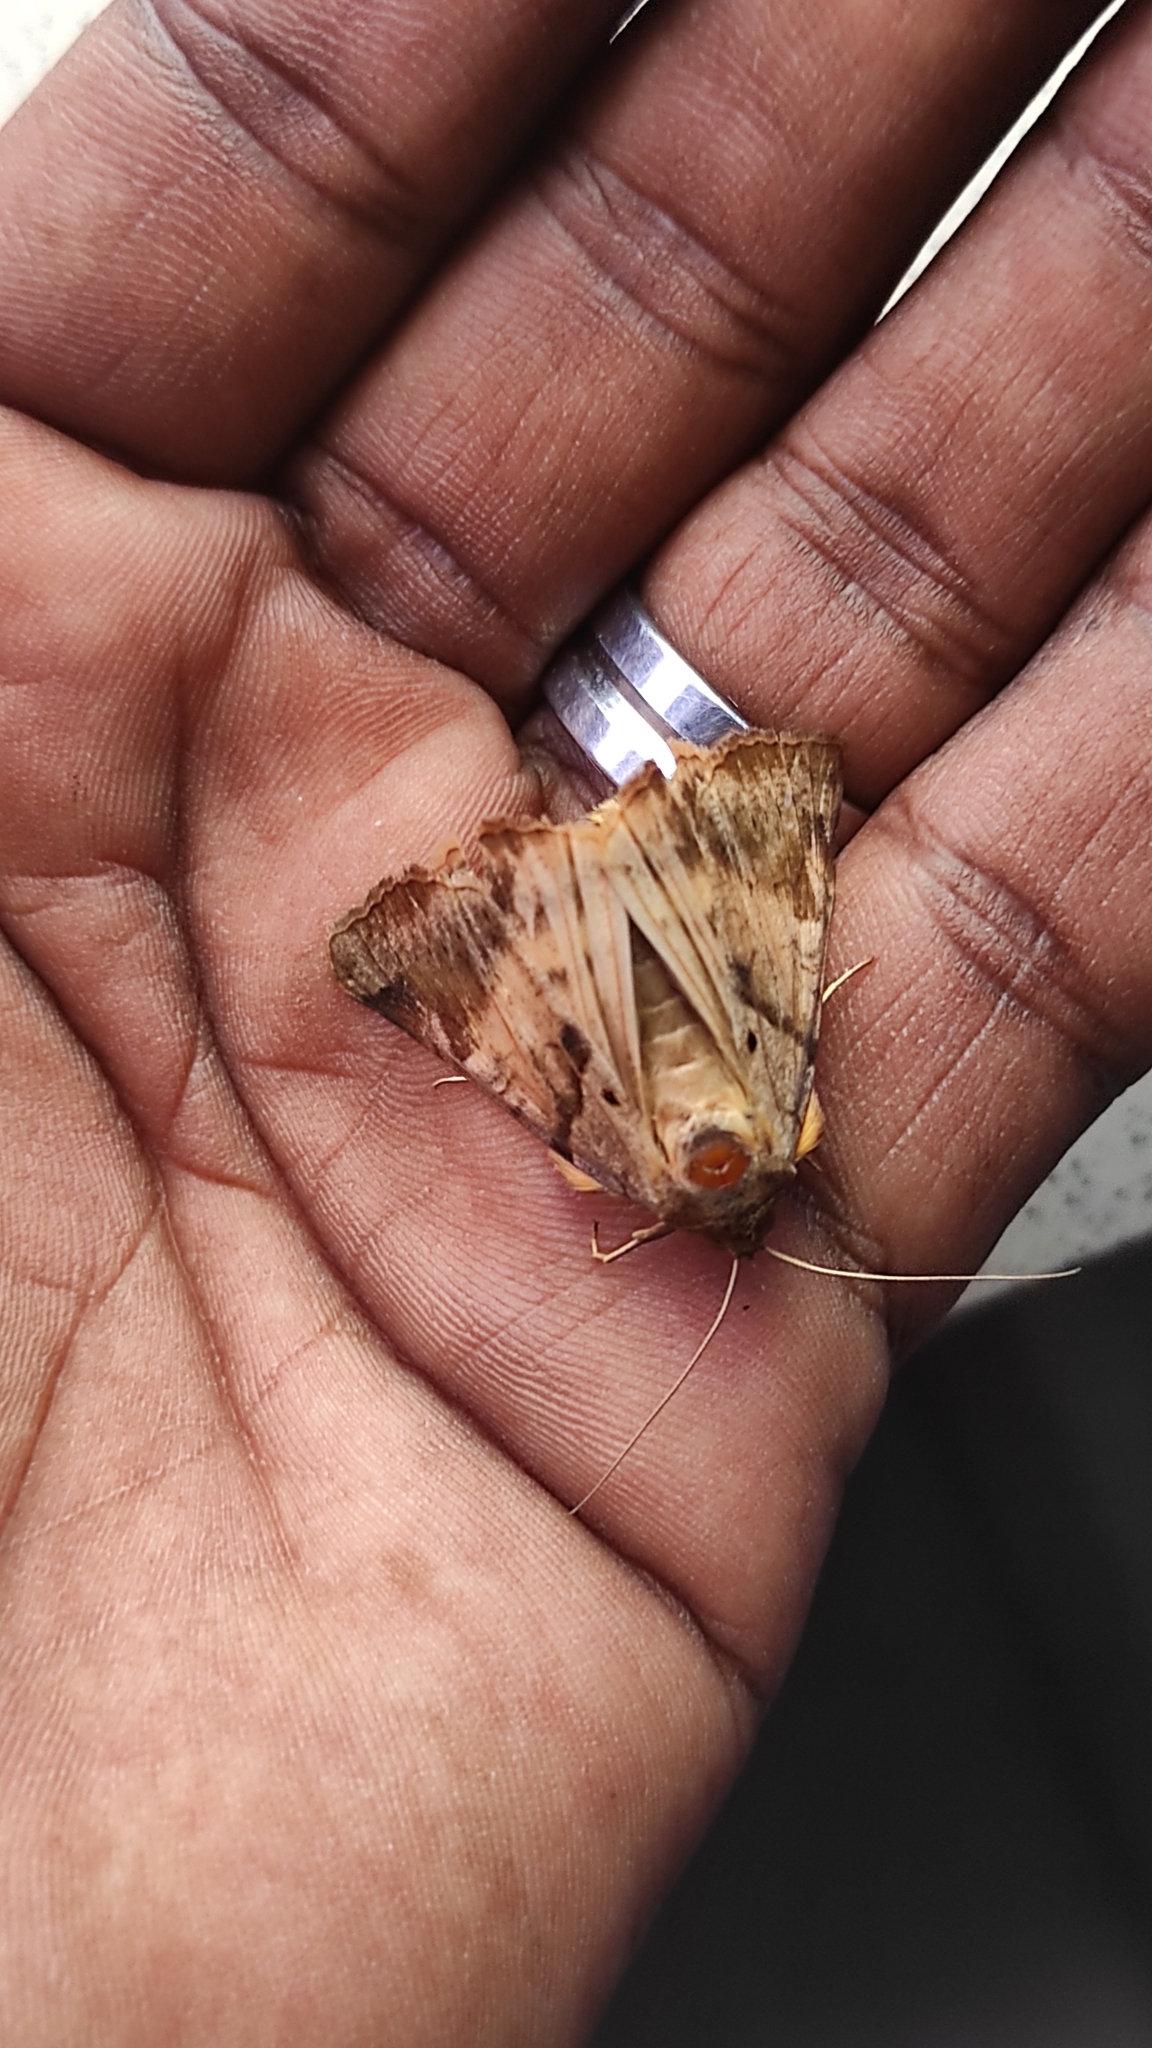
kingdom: Animalia
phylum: Arthropoda
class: Insecta
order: Lepidoptera
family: Erebidae
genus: Mocis
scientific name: Mocis undata
